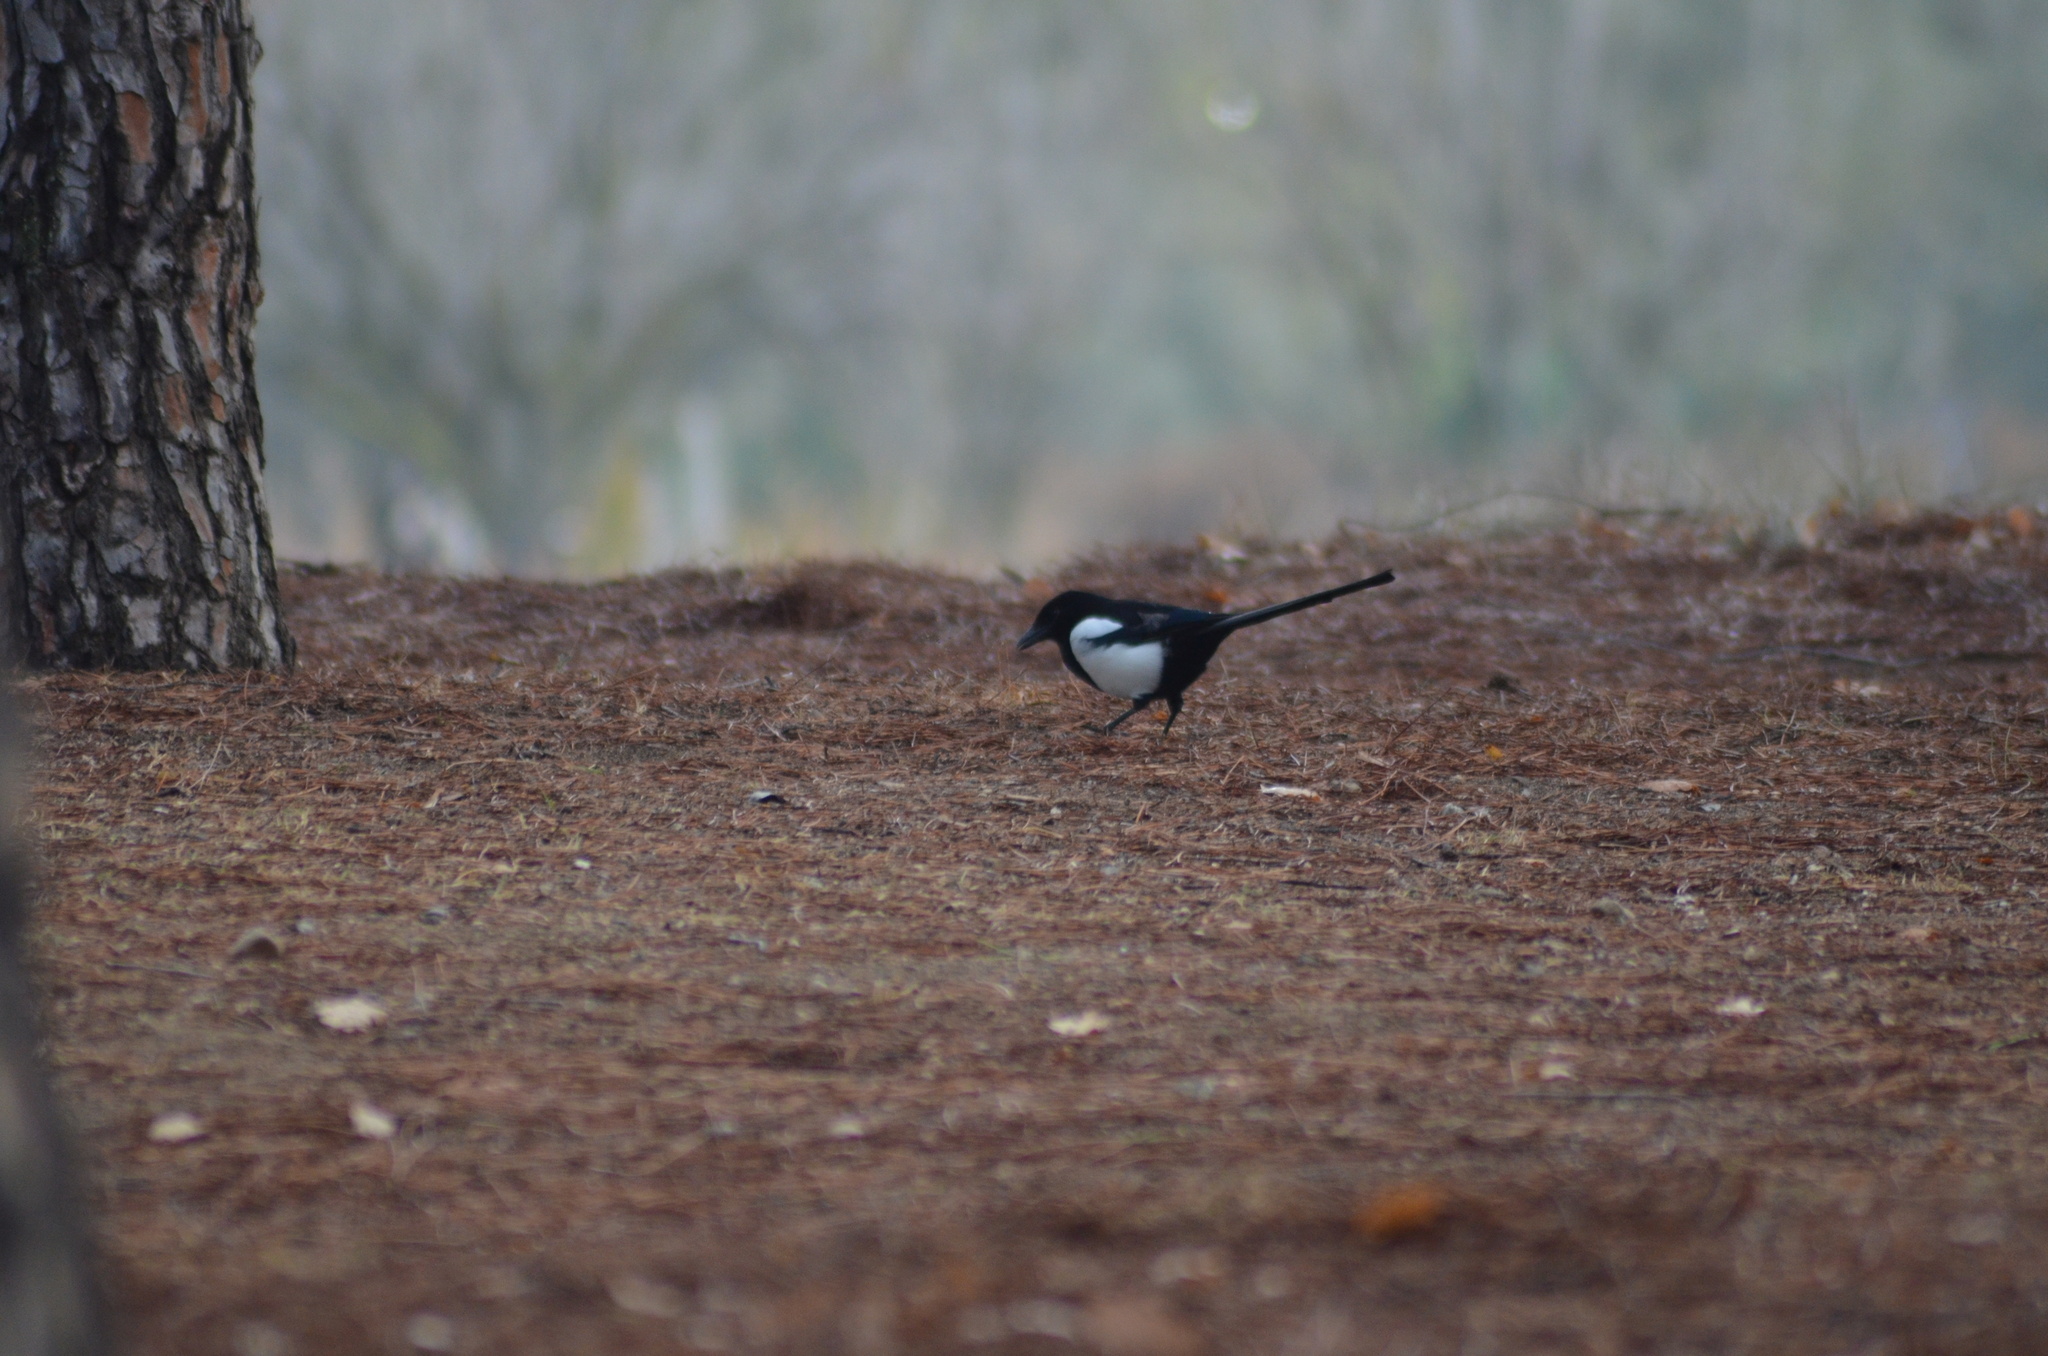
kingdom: Animalia
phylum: Chordata
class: Aves
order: Passeriformes
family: Corvidae
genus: Pica
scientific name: Pica pica
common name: Eurasian magpie
